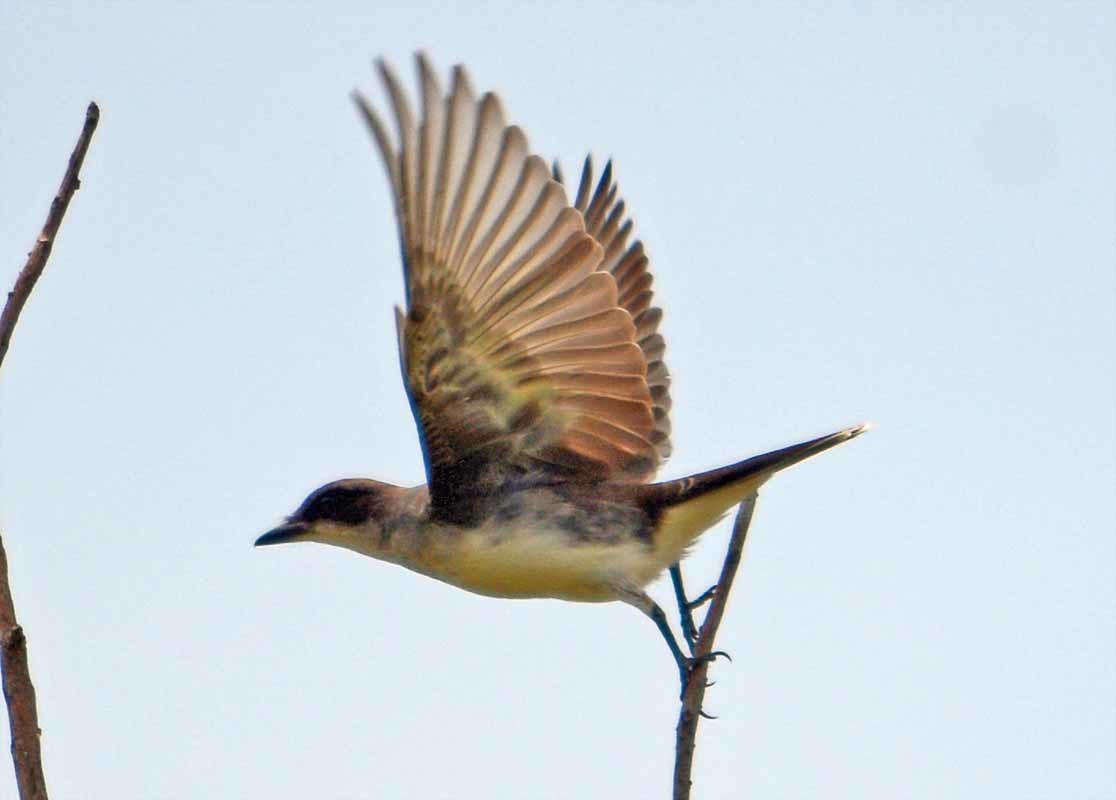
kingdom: Animalia
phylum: Chordata
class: Aves
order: Passeriformes
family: Tyrannidae
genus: Tyrannus
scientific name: Tyrannus tyrannus
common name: Eastern kingbird
